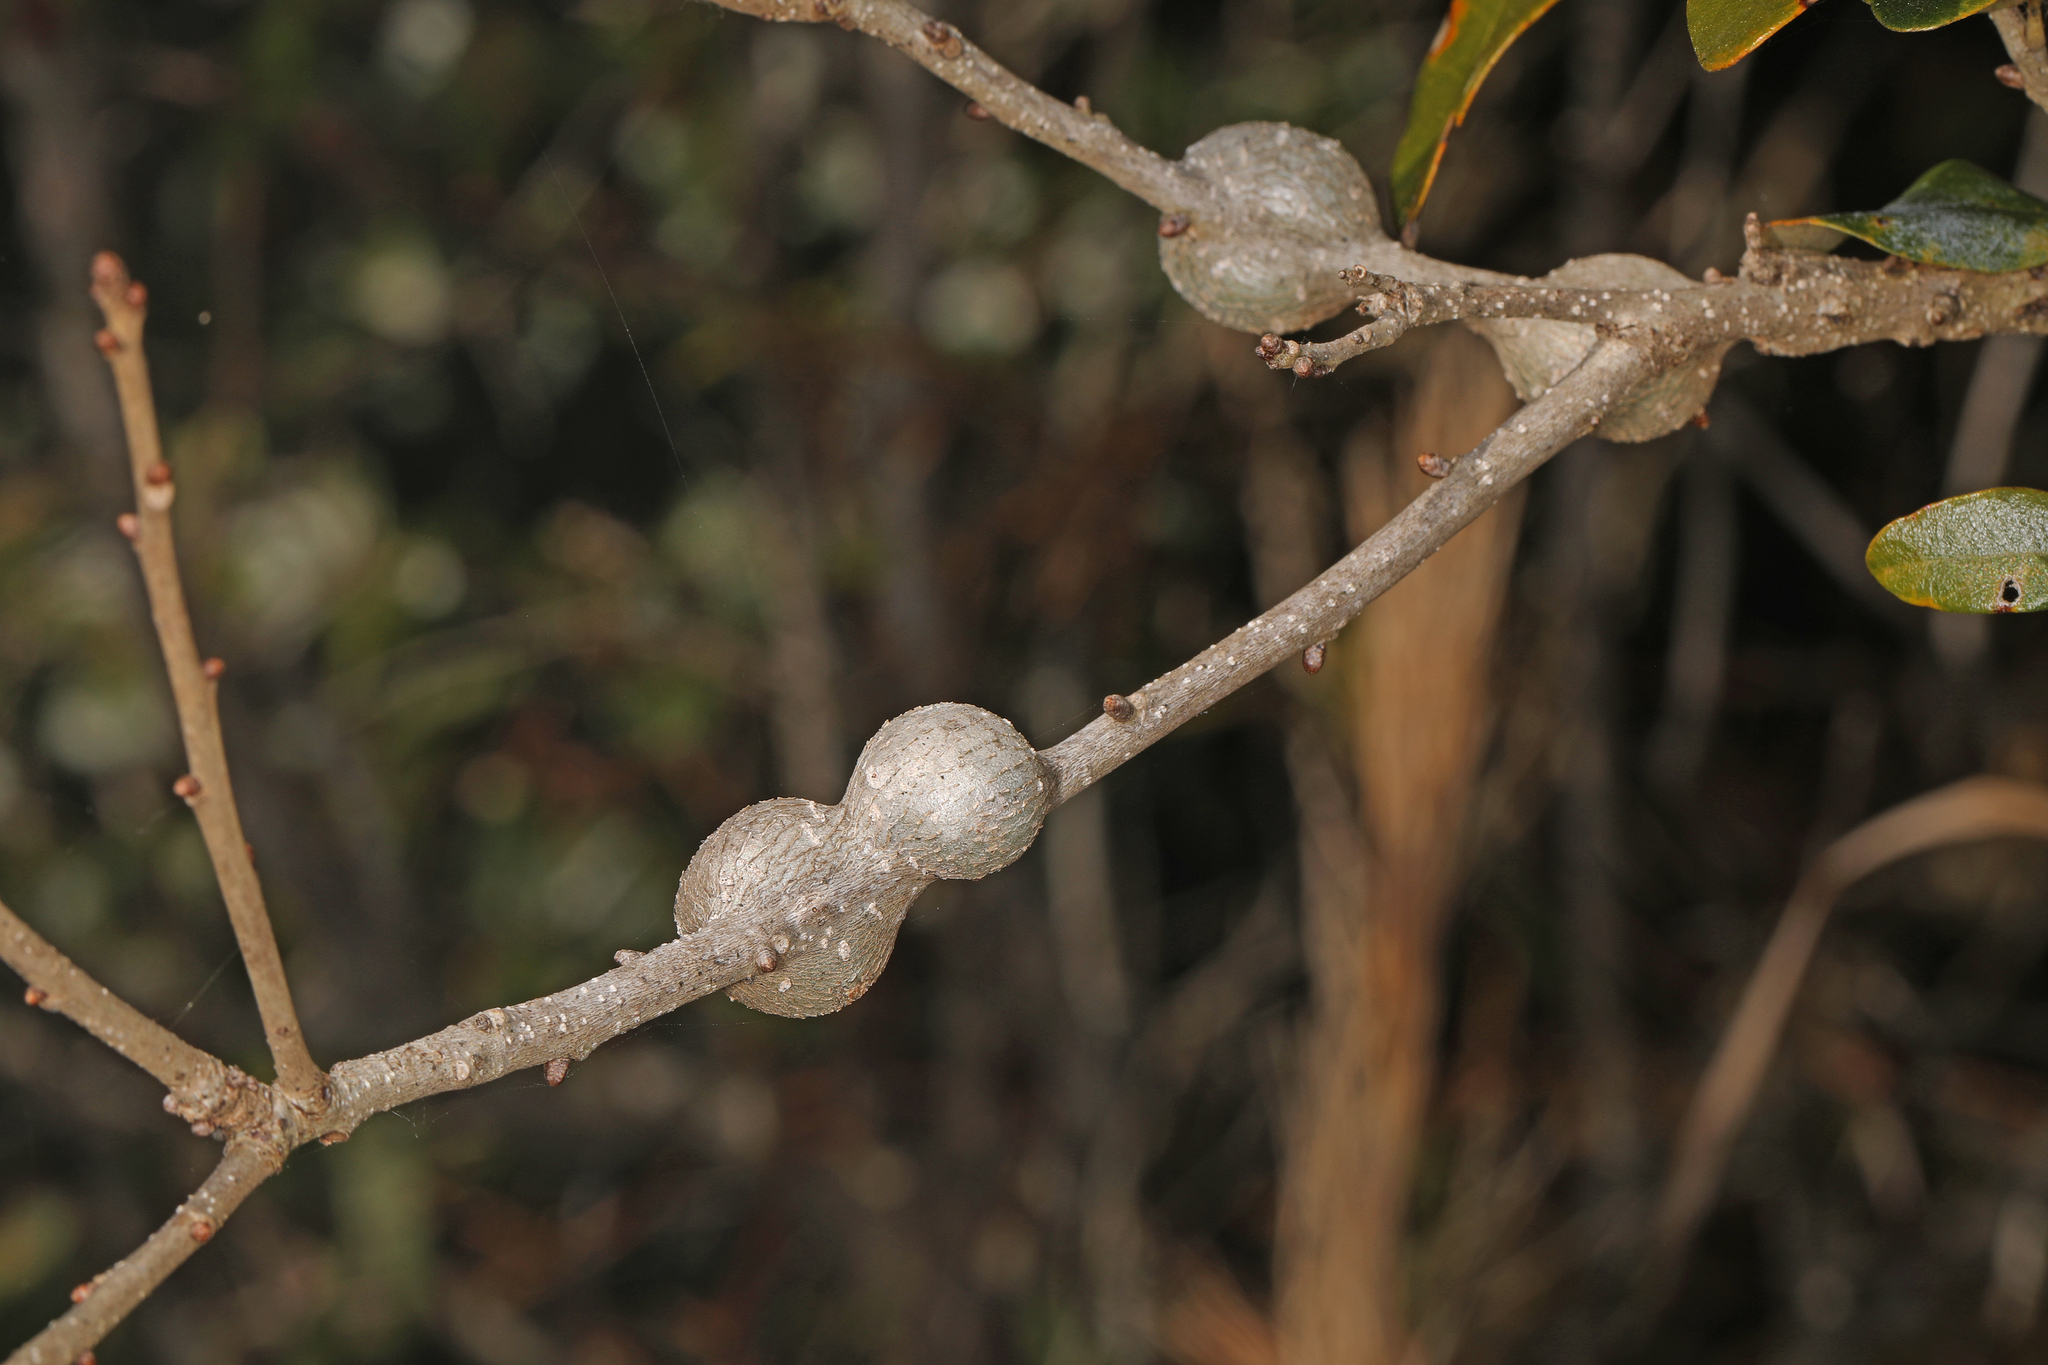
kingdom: Animalia
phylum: Arthropoda
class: Insecta
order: Hymenoptera
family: Cynipidae
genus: Callirhytis
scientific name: Callirhytis
